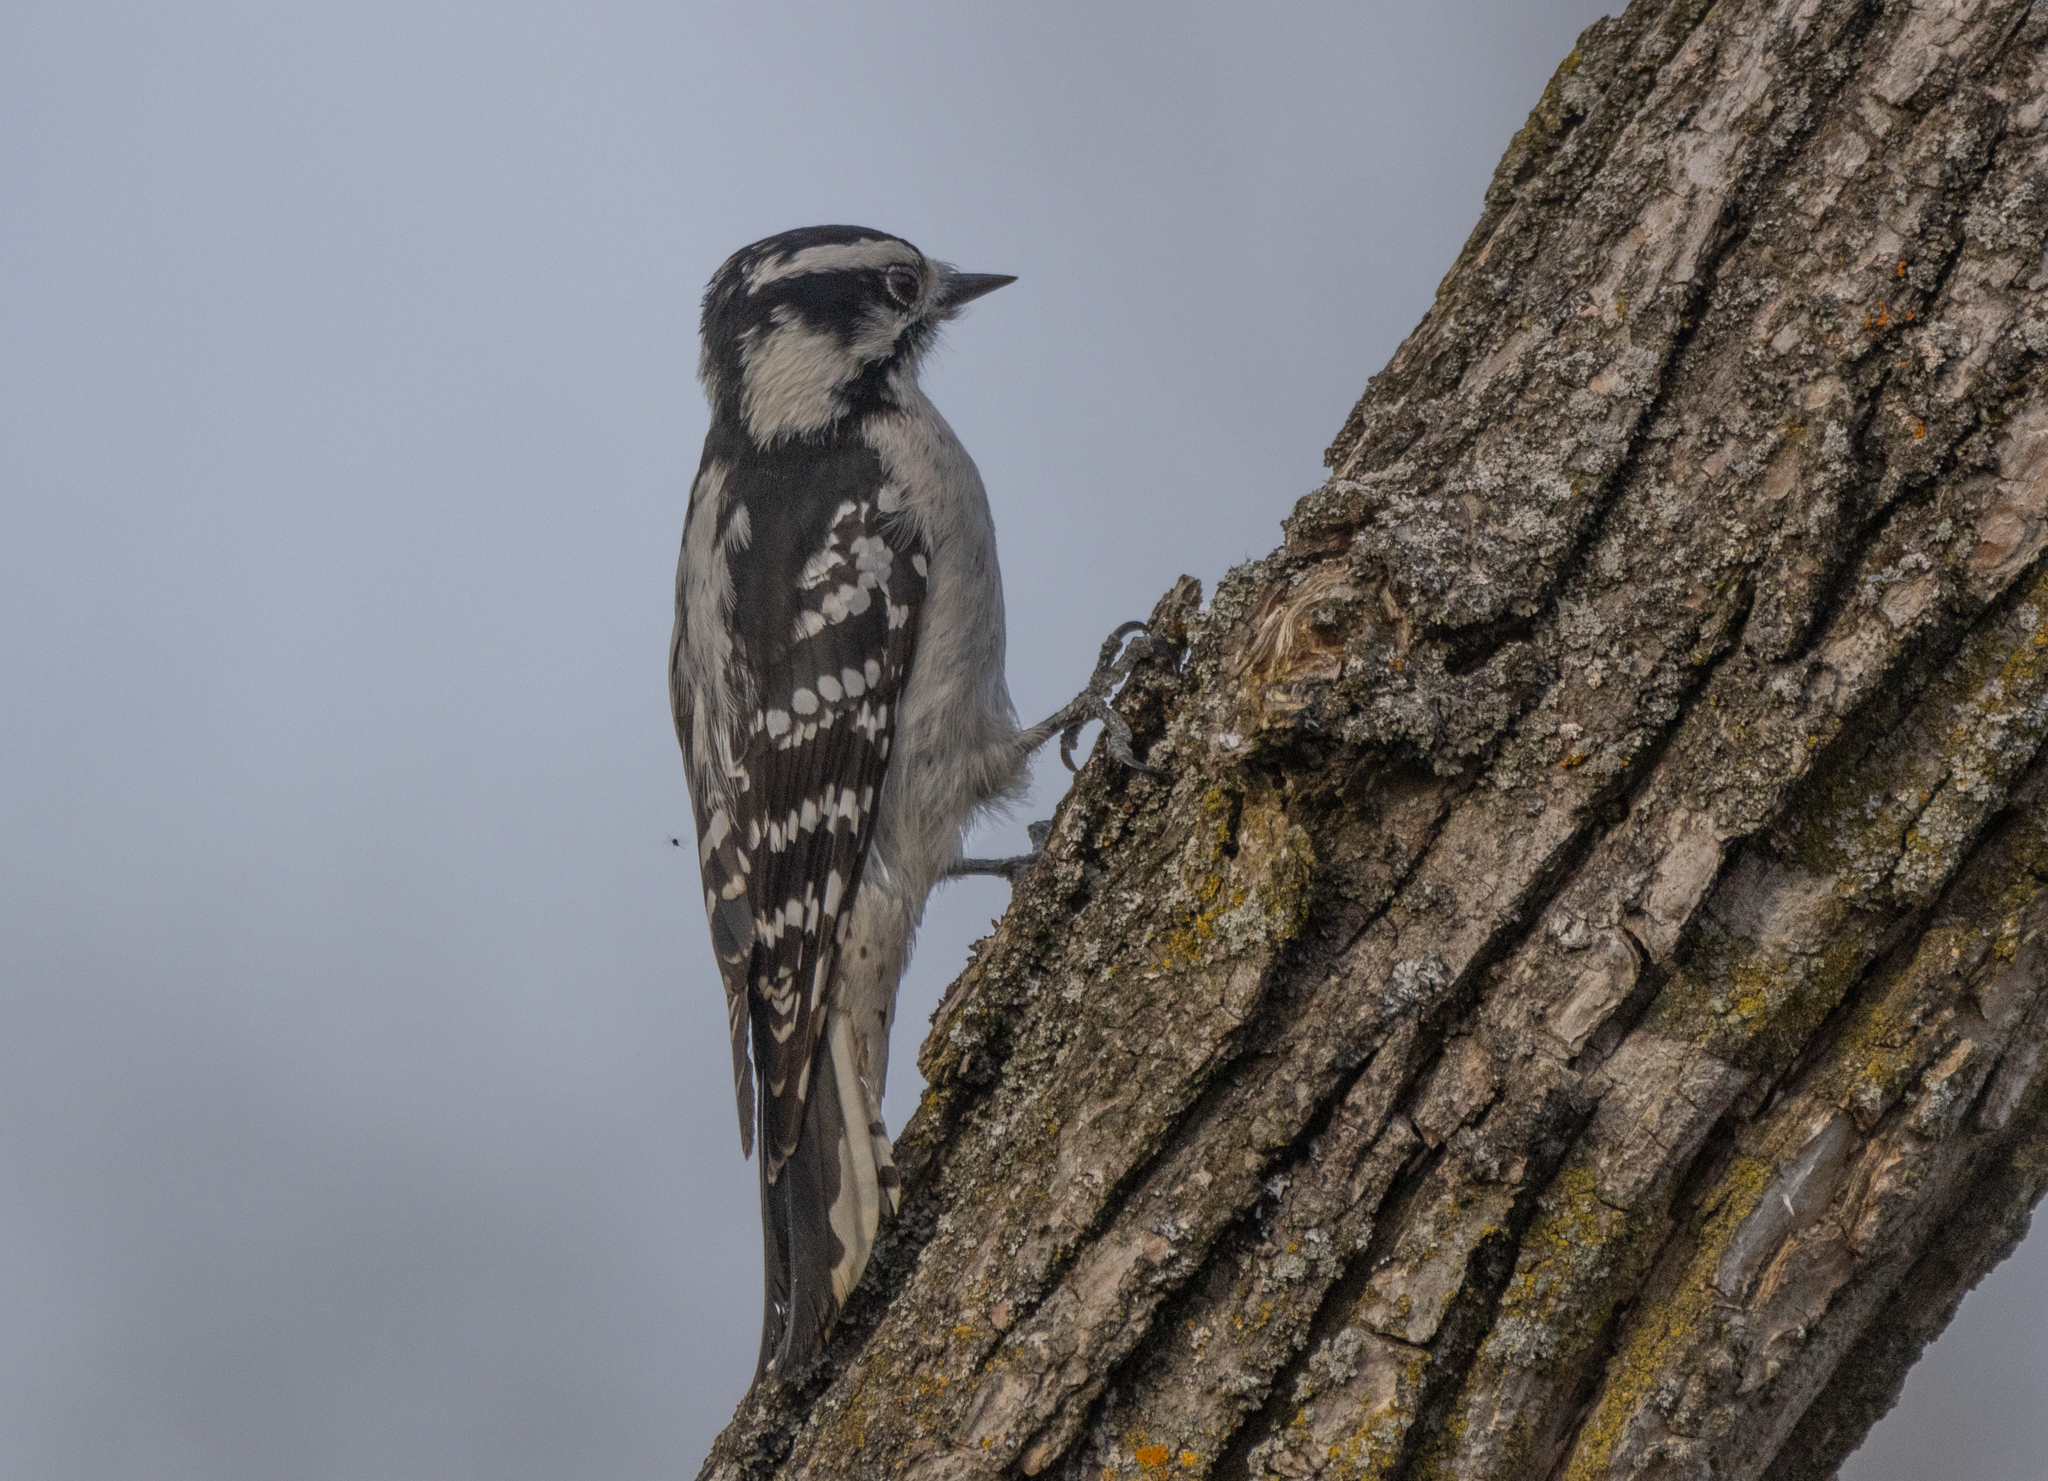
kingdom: Animalia
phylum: Chordata
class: Aves
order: Piciformes
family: Picidae
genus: Dryobates
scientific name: Dryobates pubescens
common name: Downy woodpecker
